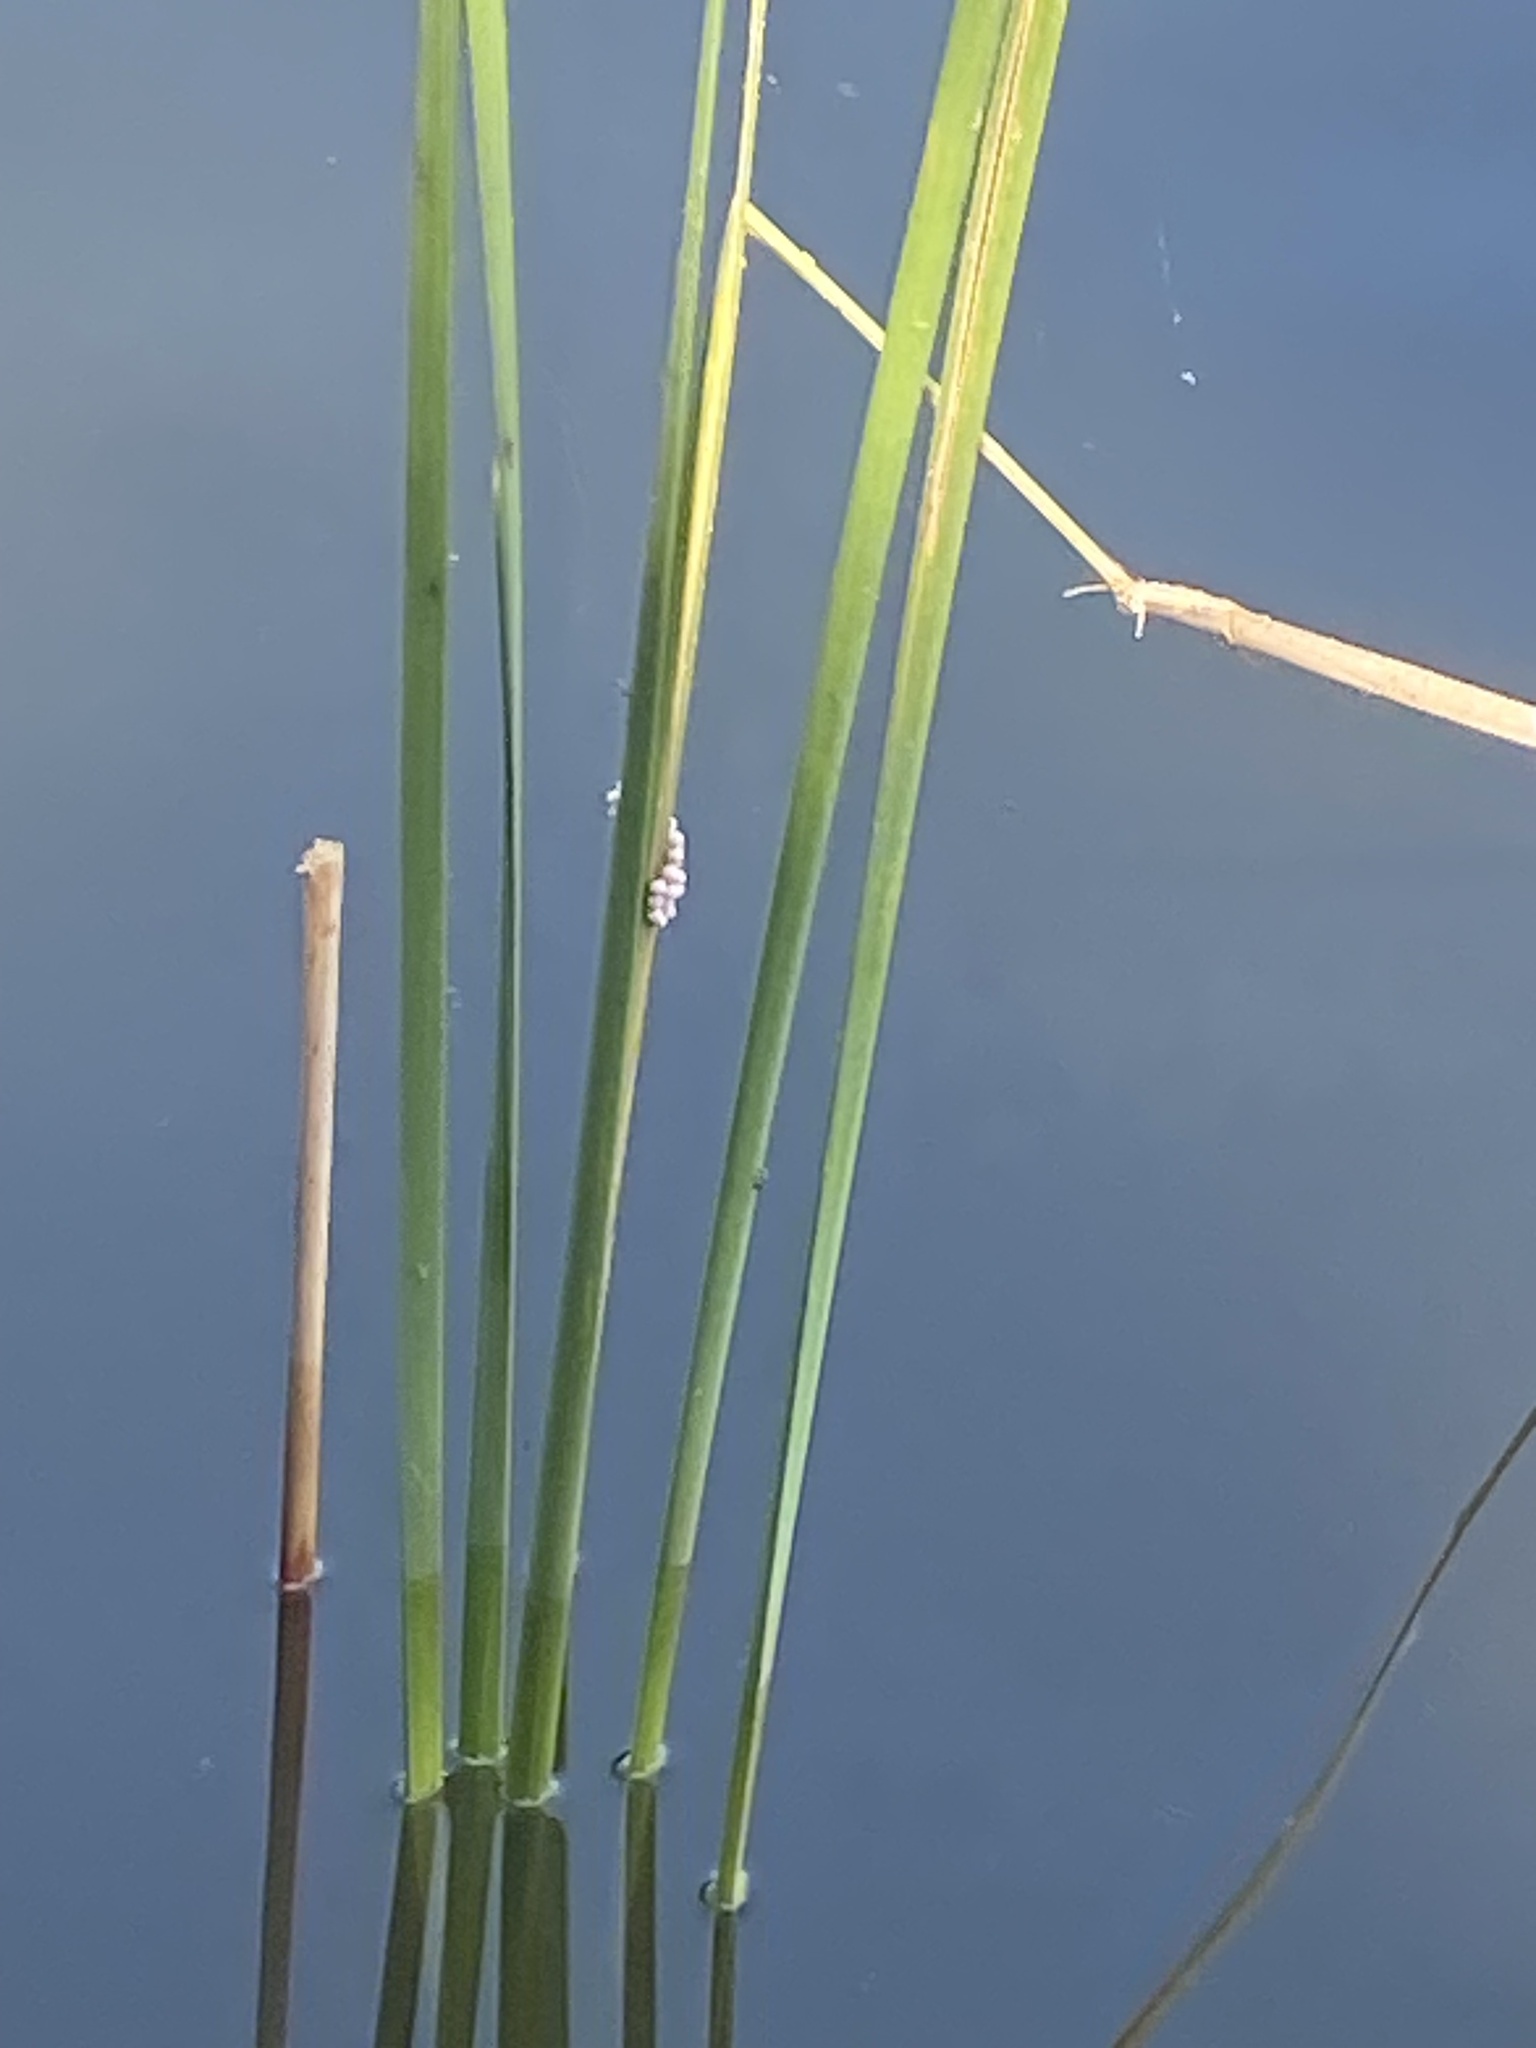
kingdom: Animalia
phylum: Mollusca
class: Gastropoda
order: Architaenioglossa
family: Ampullariidae
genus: Pomacea
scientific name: Pomacea paludosa
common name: Florida applesnail
